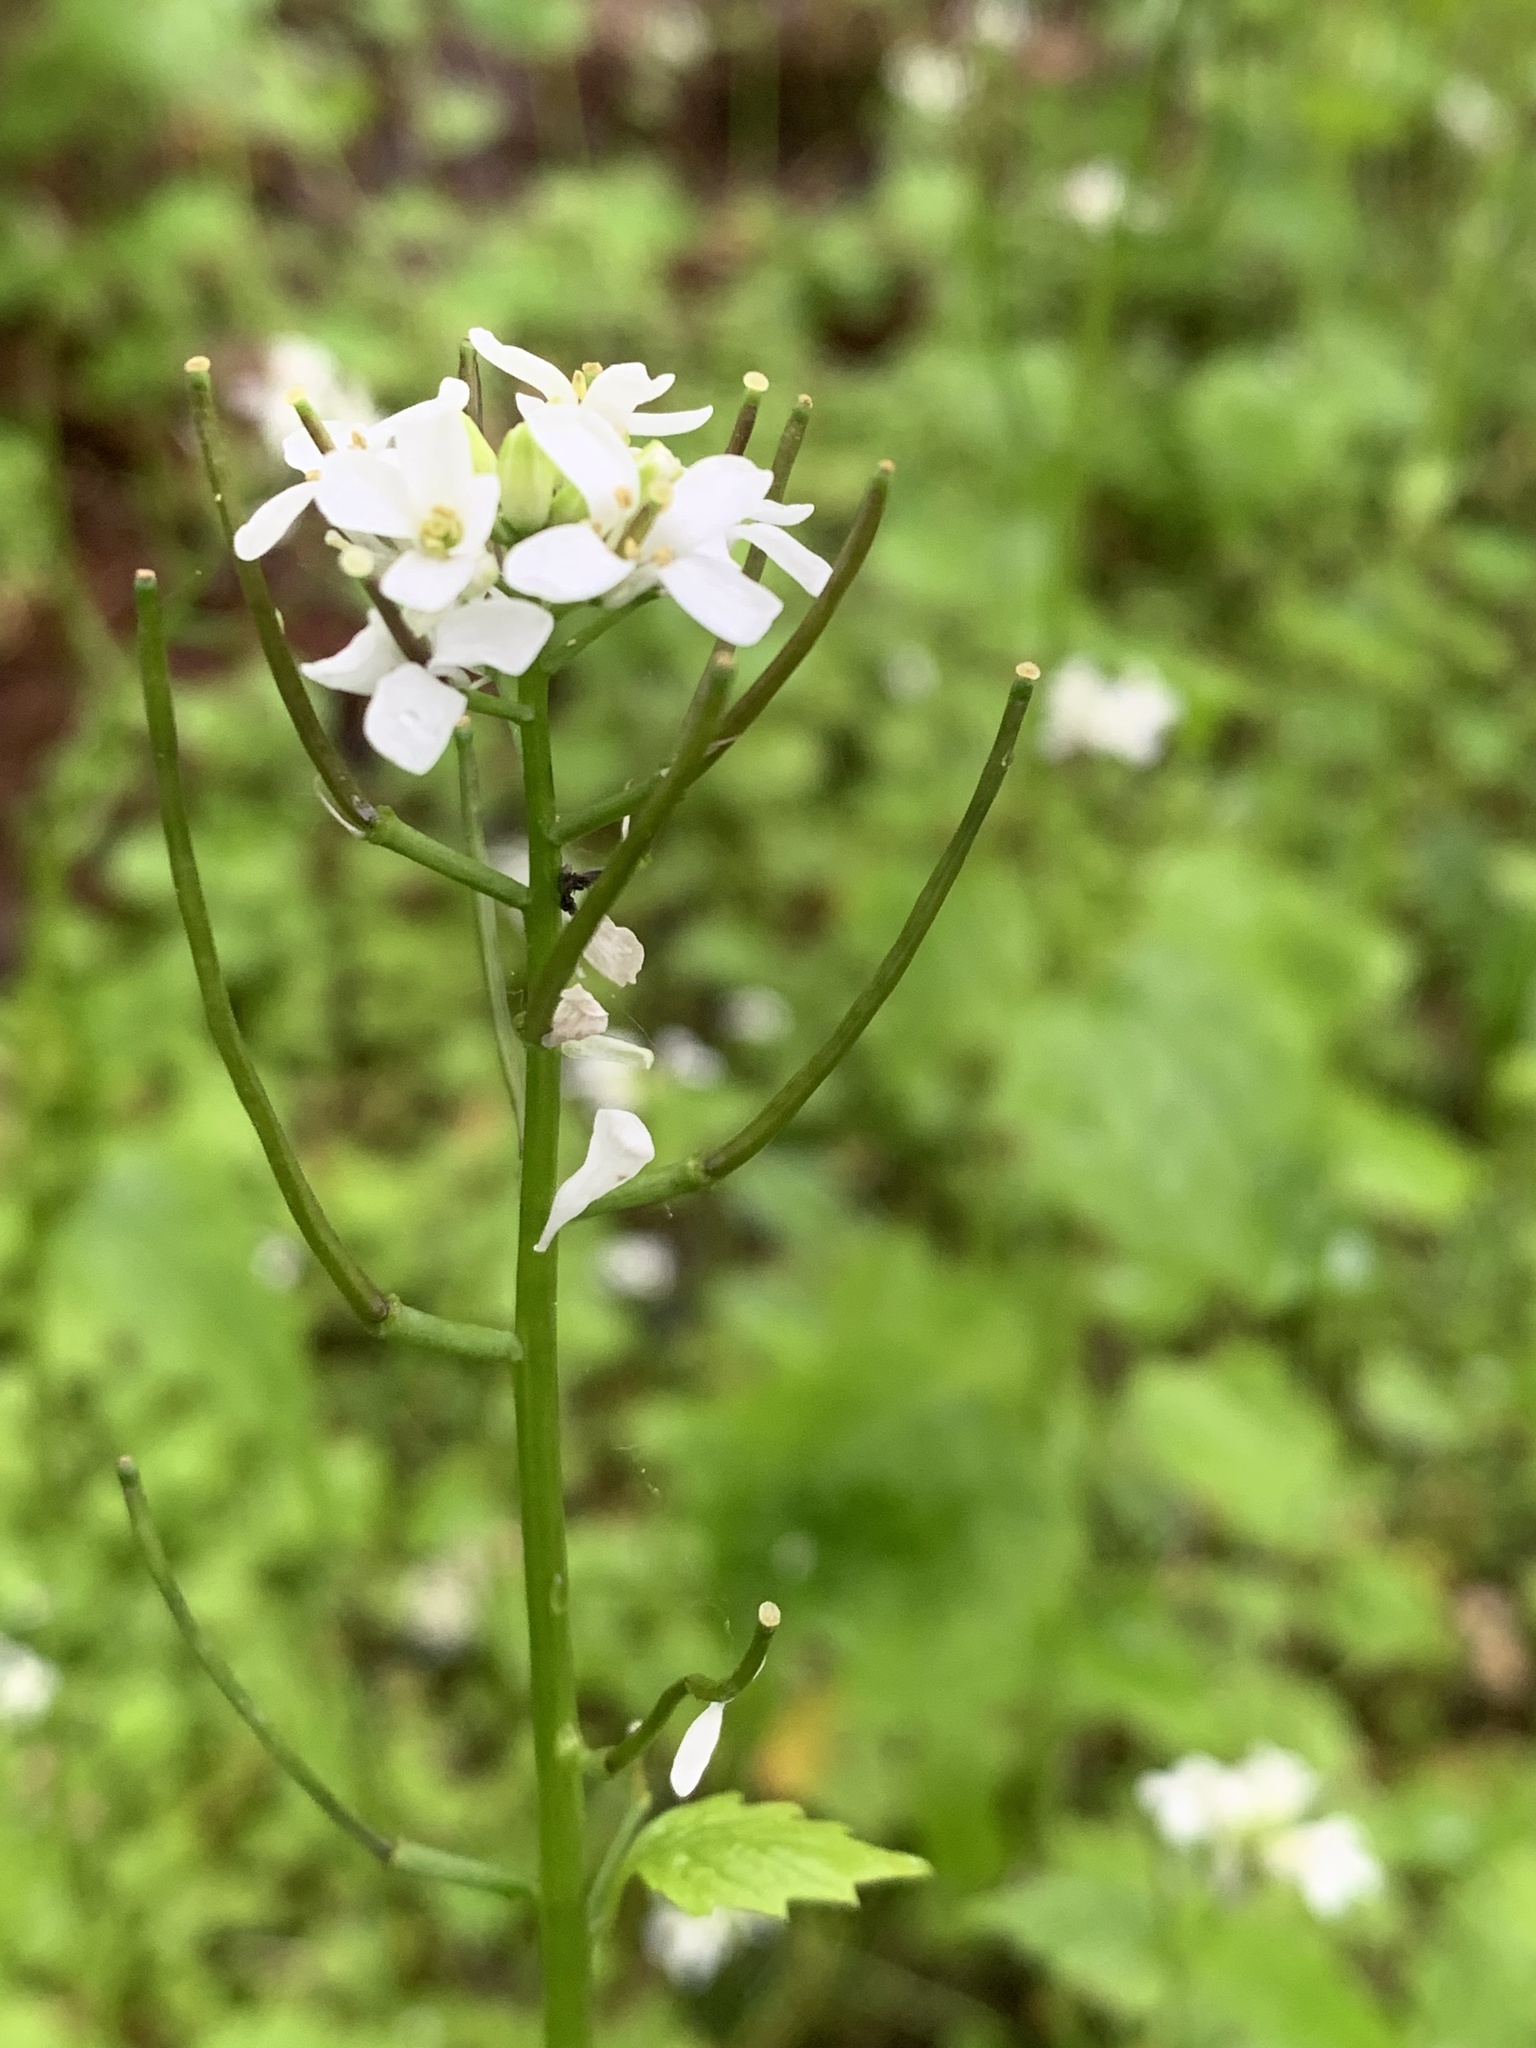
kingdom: Plantae
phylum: Tracheophyta
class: Magnoliopsida
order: Brassicales
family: Brassicaceae
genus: Alliaria
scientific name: Alliaria petiolata
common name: Garlic mustard
